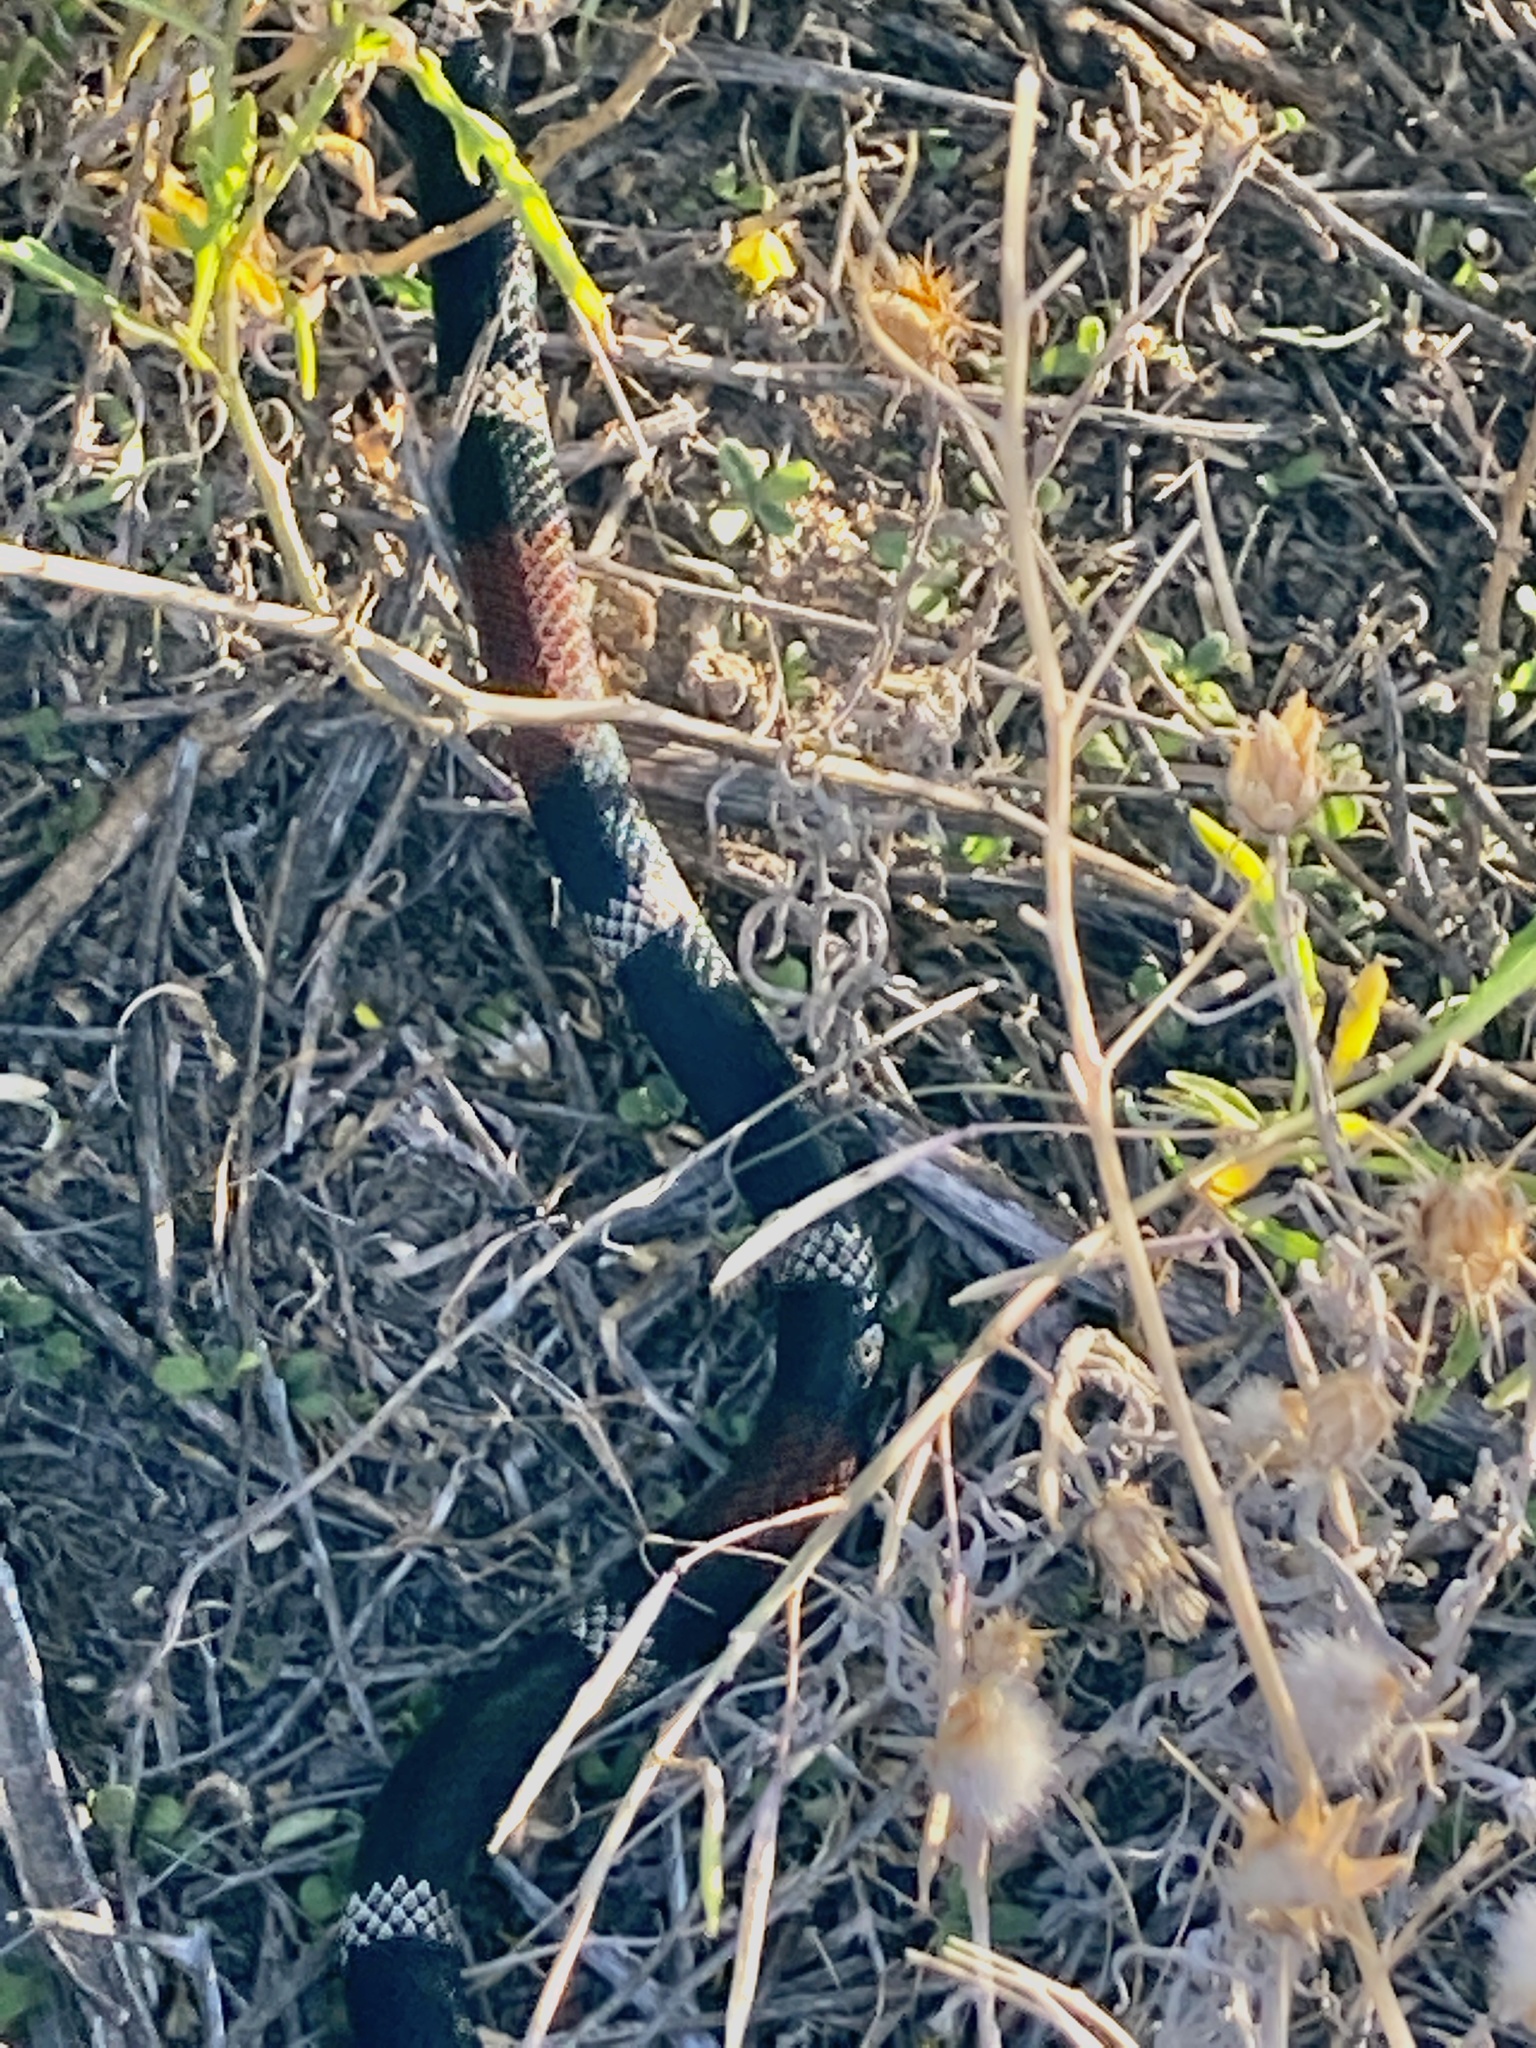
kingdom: Animalia
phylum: Chordata
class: Squamata
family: Elapidae
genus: Micrurus
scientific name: Micrurus pyrrhocryptus
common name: Argentinian coral snake
